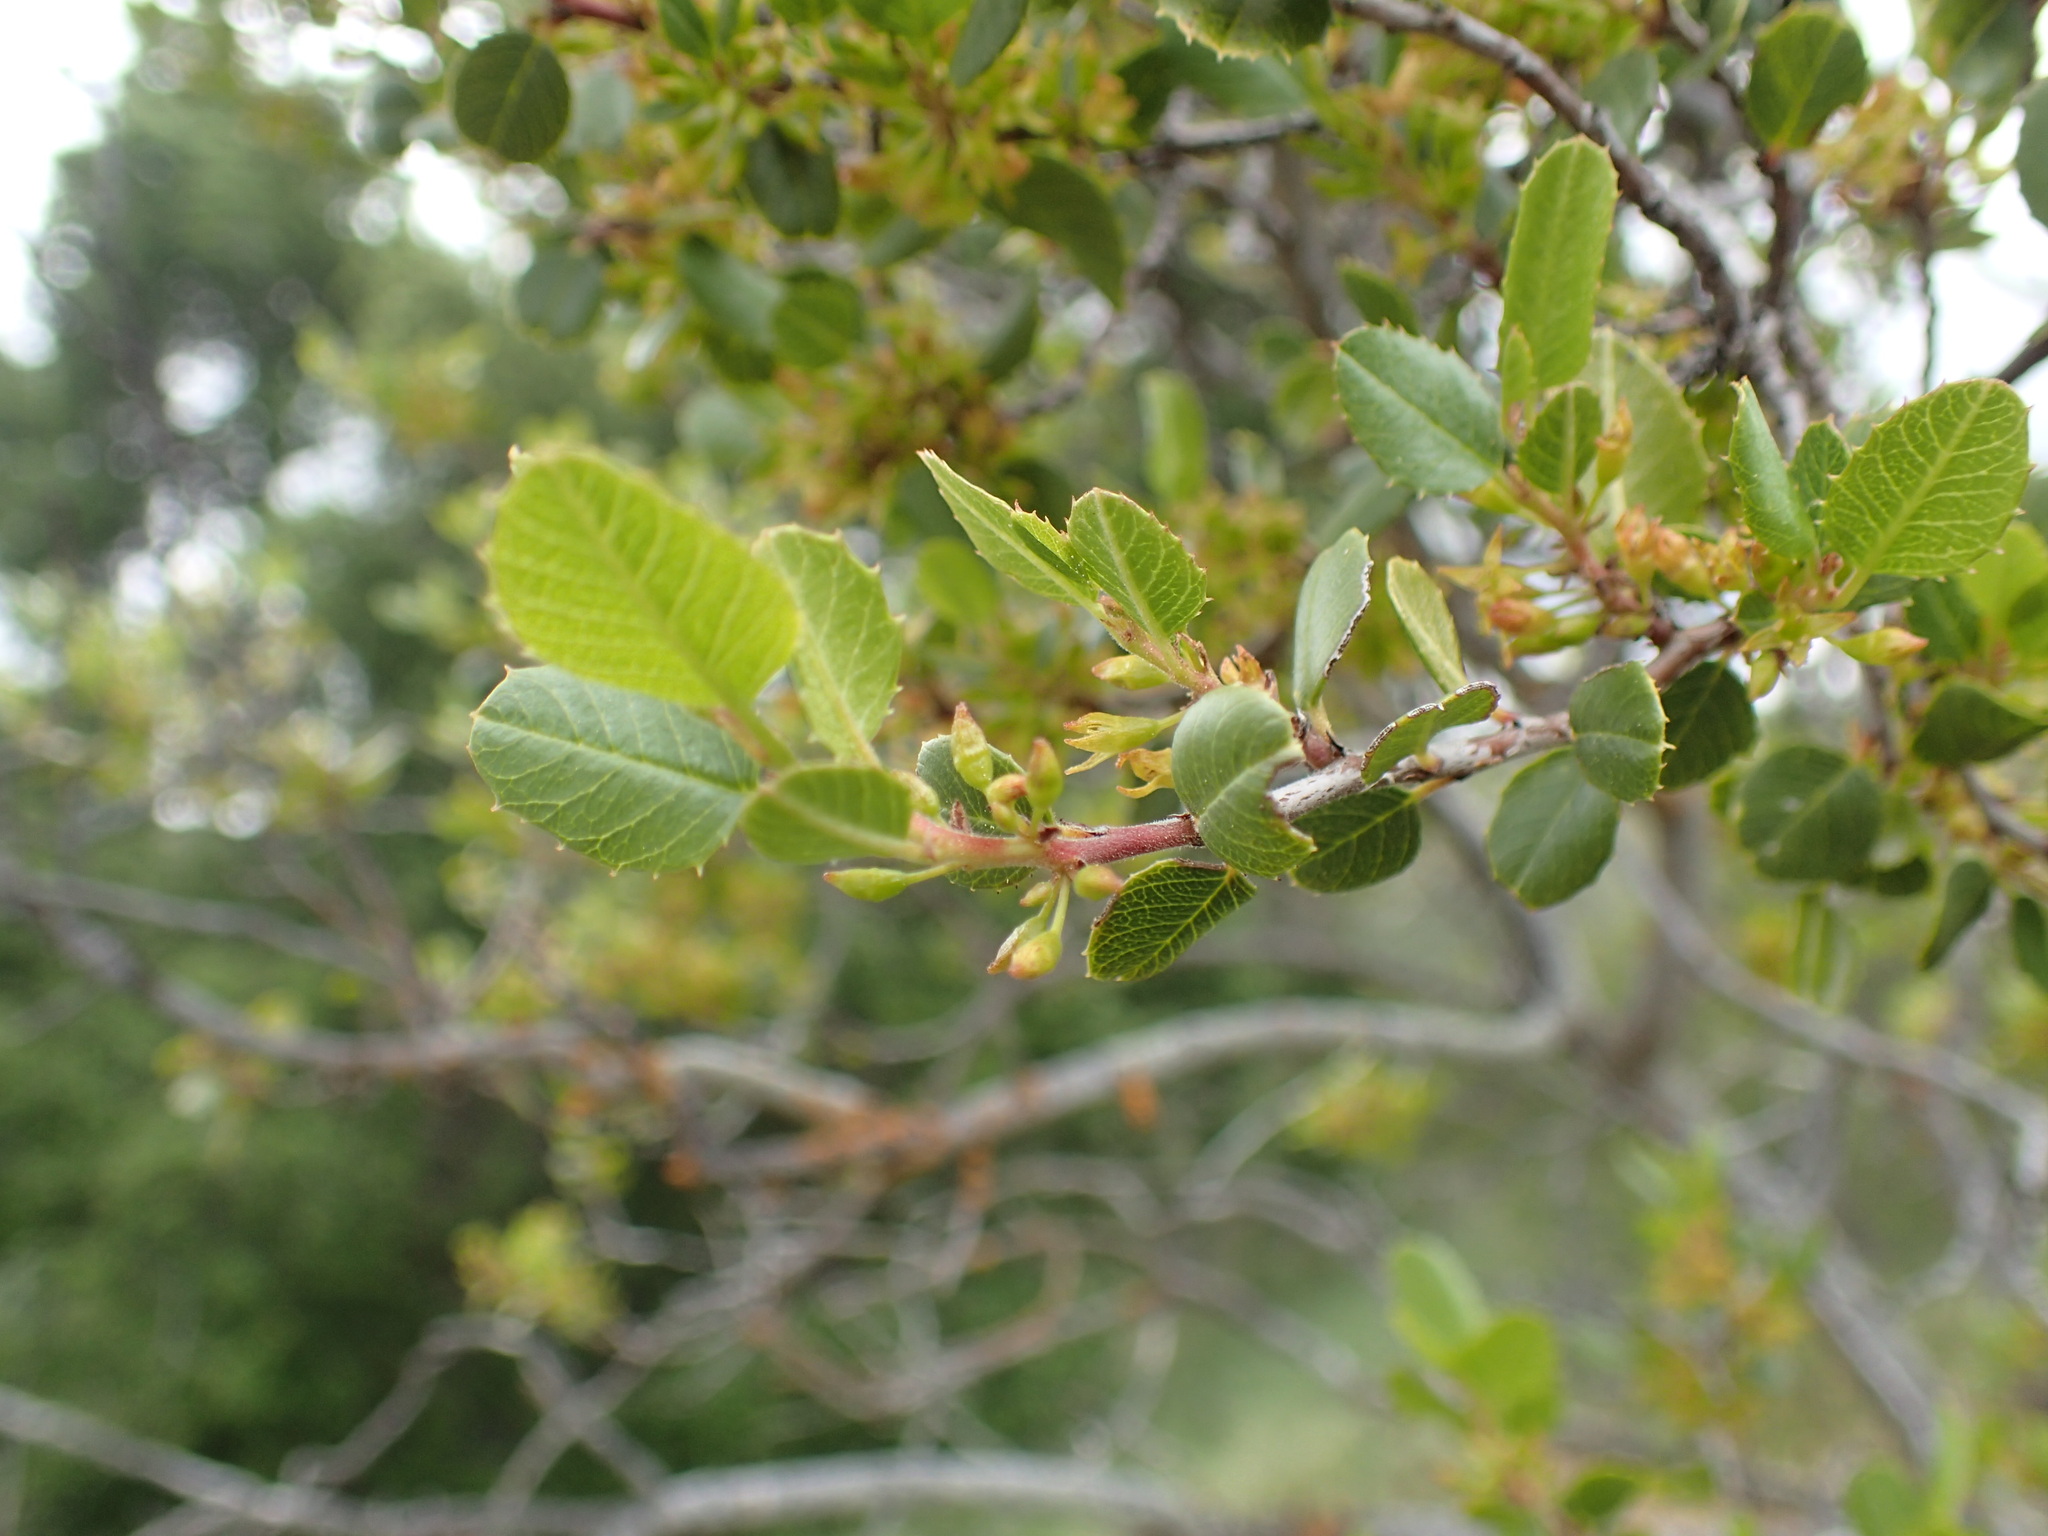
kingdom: Plantae
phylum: Tracheophyta
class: Magnoliopsida
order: Rosales
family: Rhamnaceae
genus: Endotropis
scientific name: Endotropis crocea
